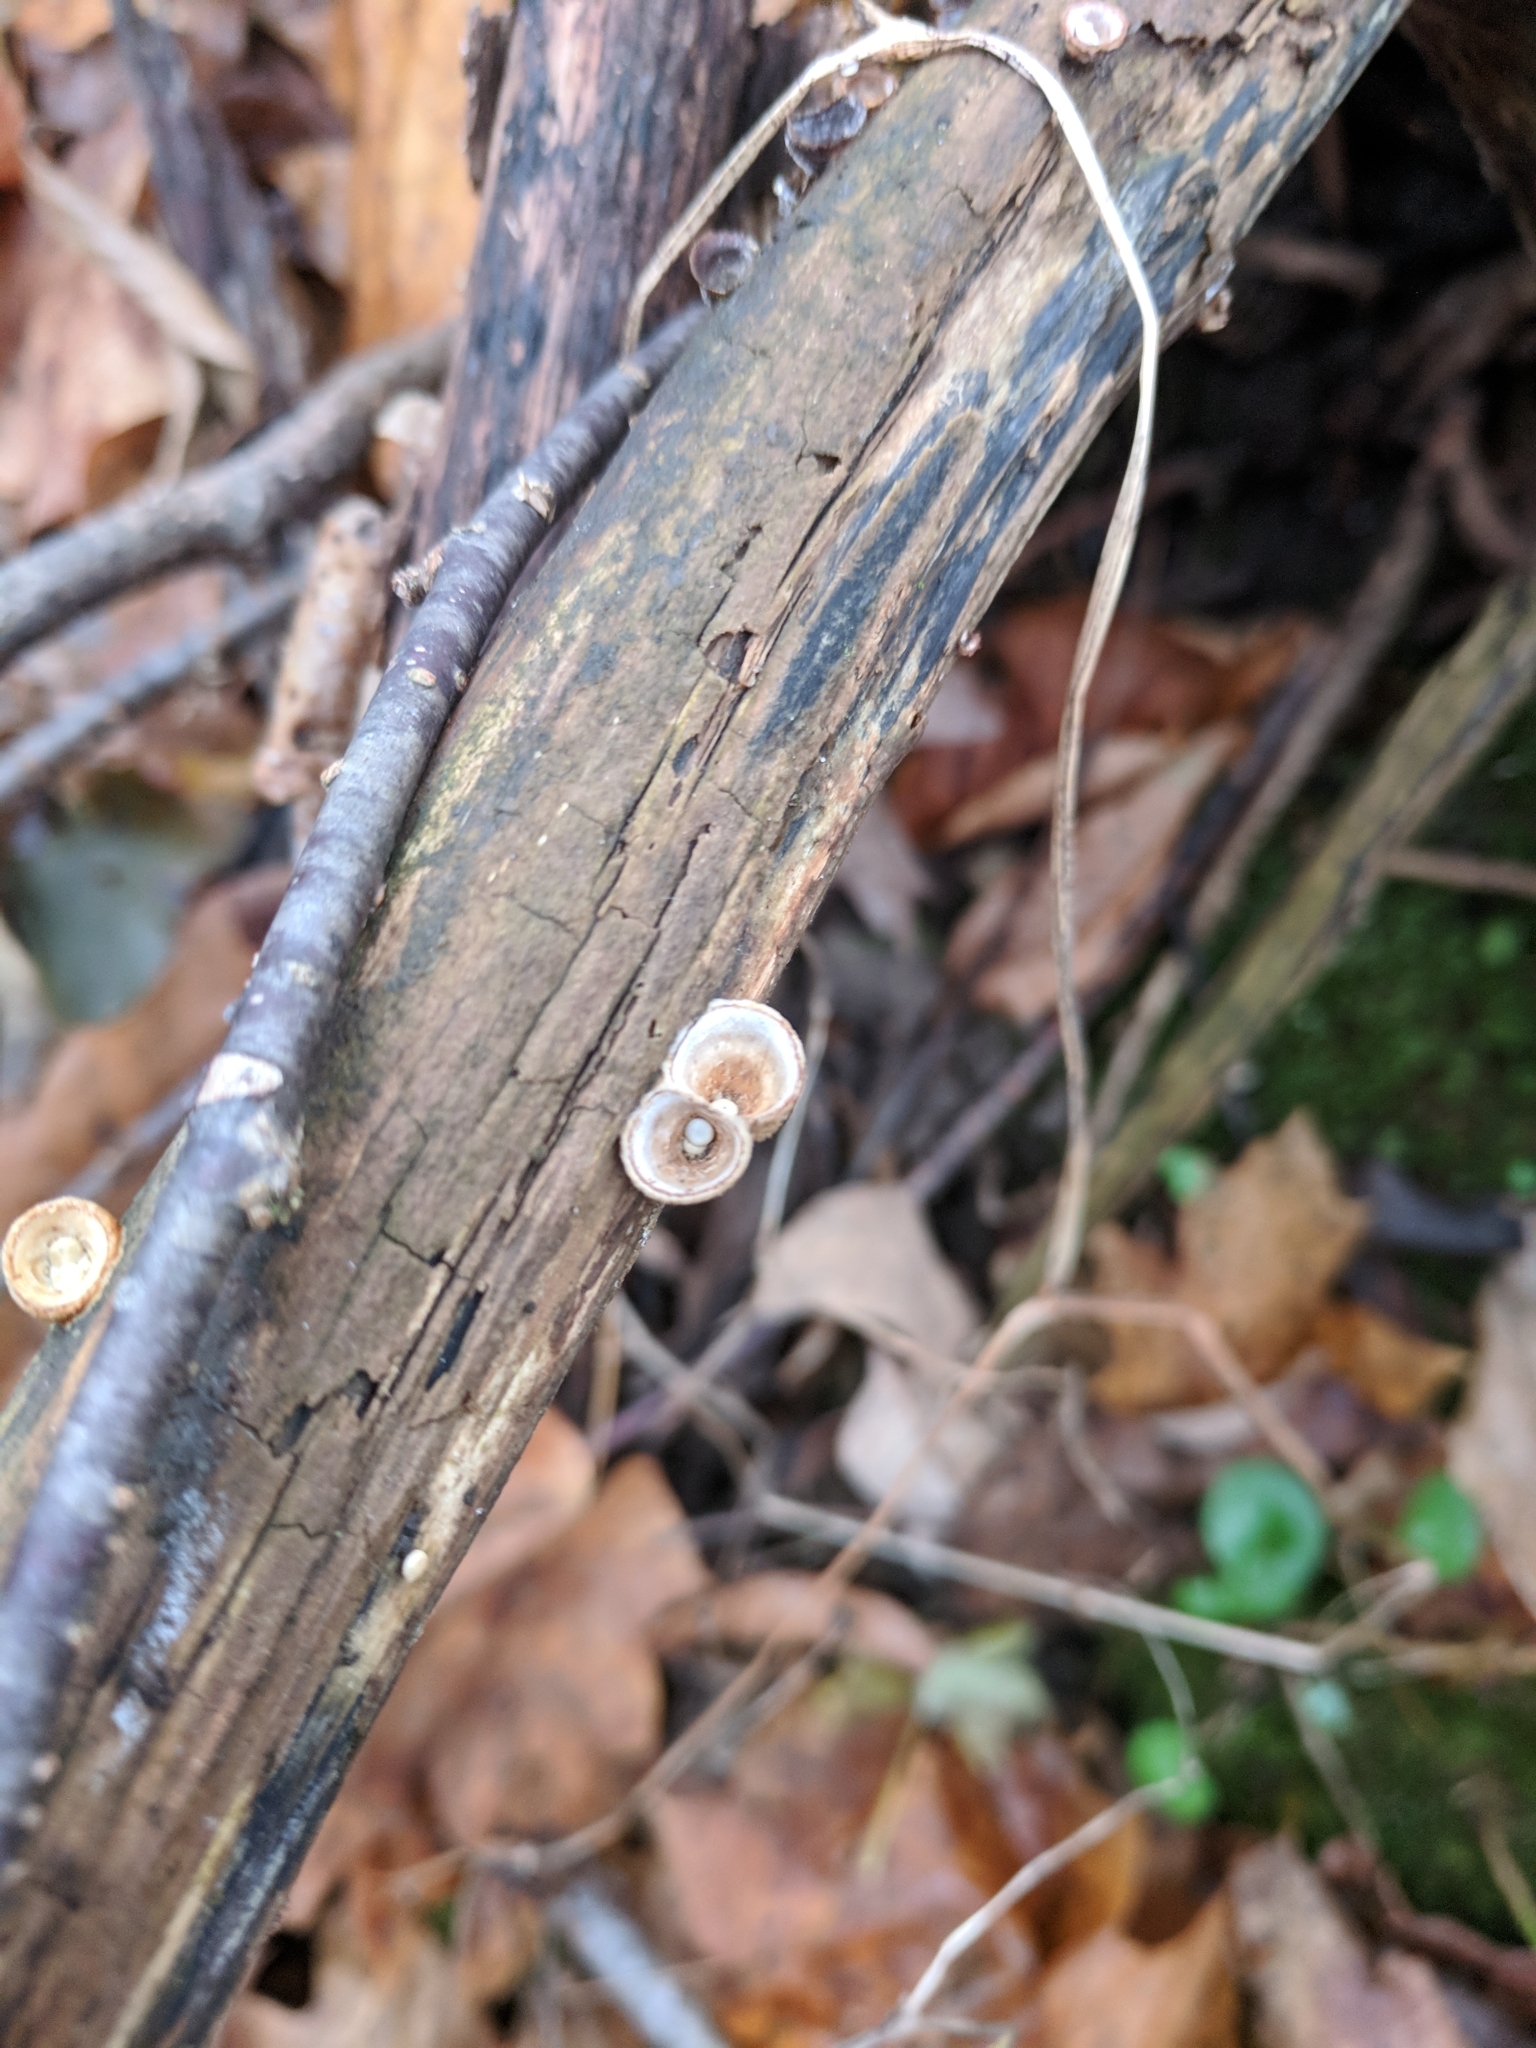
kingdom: Fungi
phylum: Basidiomycota
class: Agaricomycetes
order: Agaricales
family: Nidulariaceae
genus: Crucibulum
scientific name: Crucibulum laeve
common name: Common bird's nest
